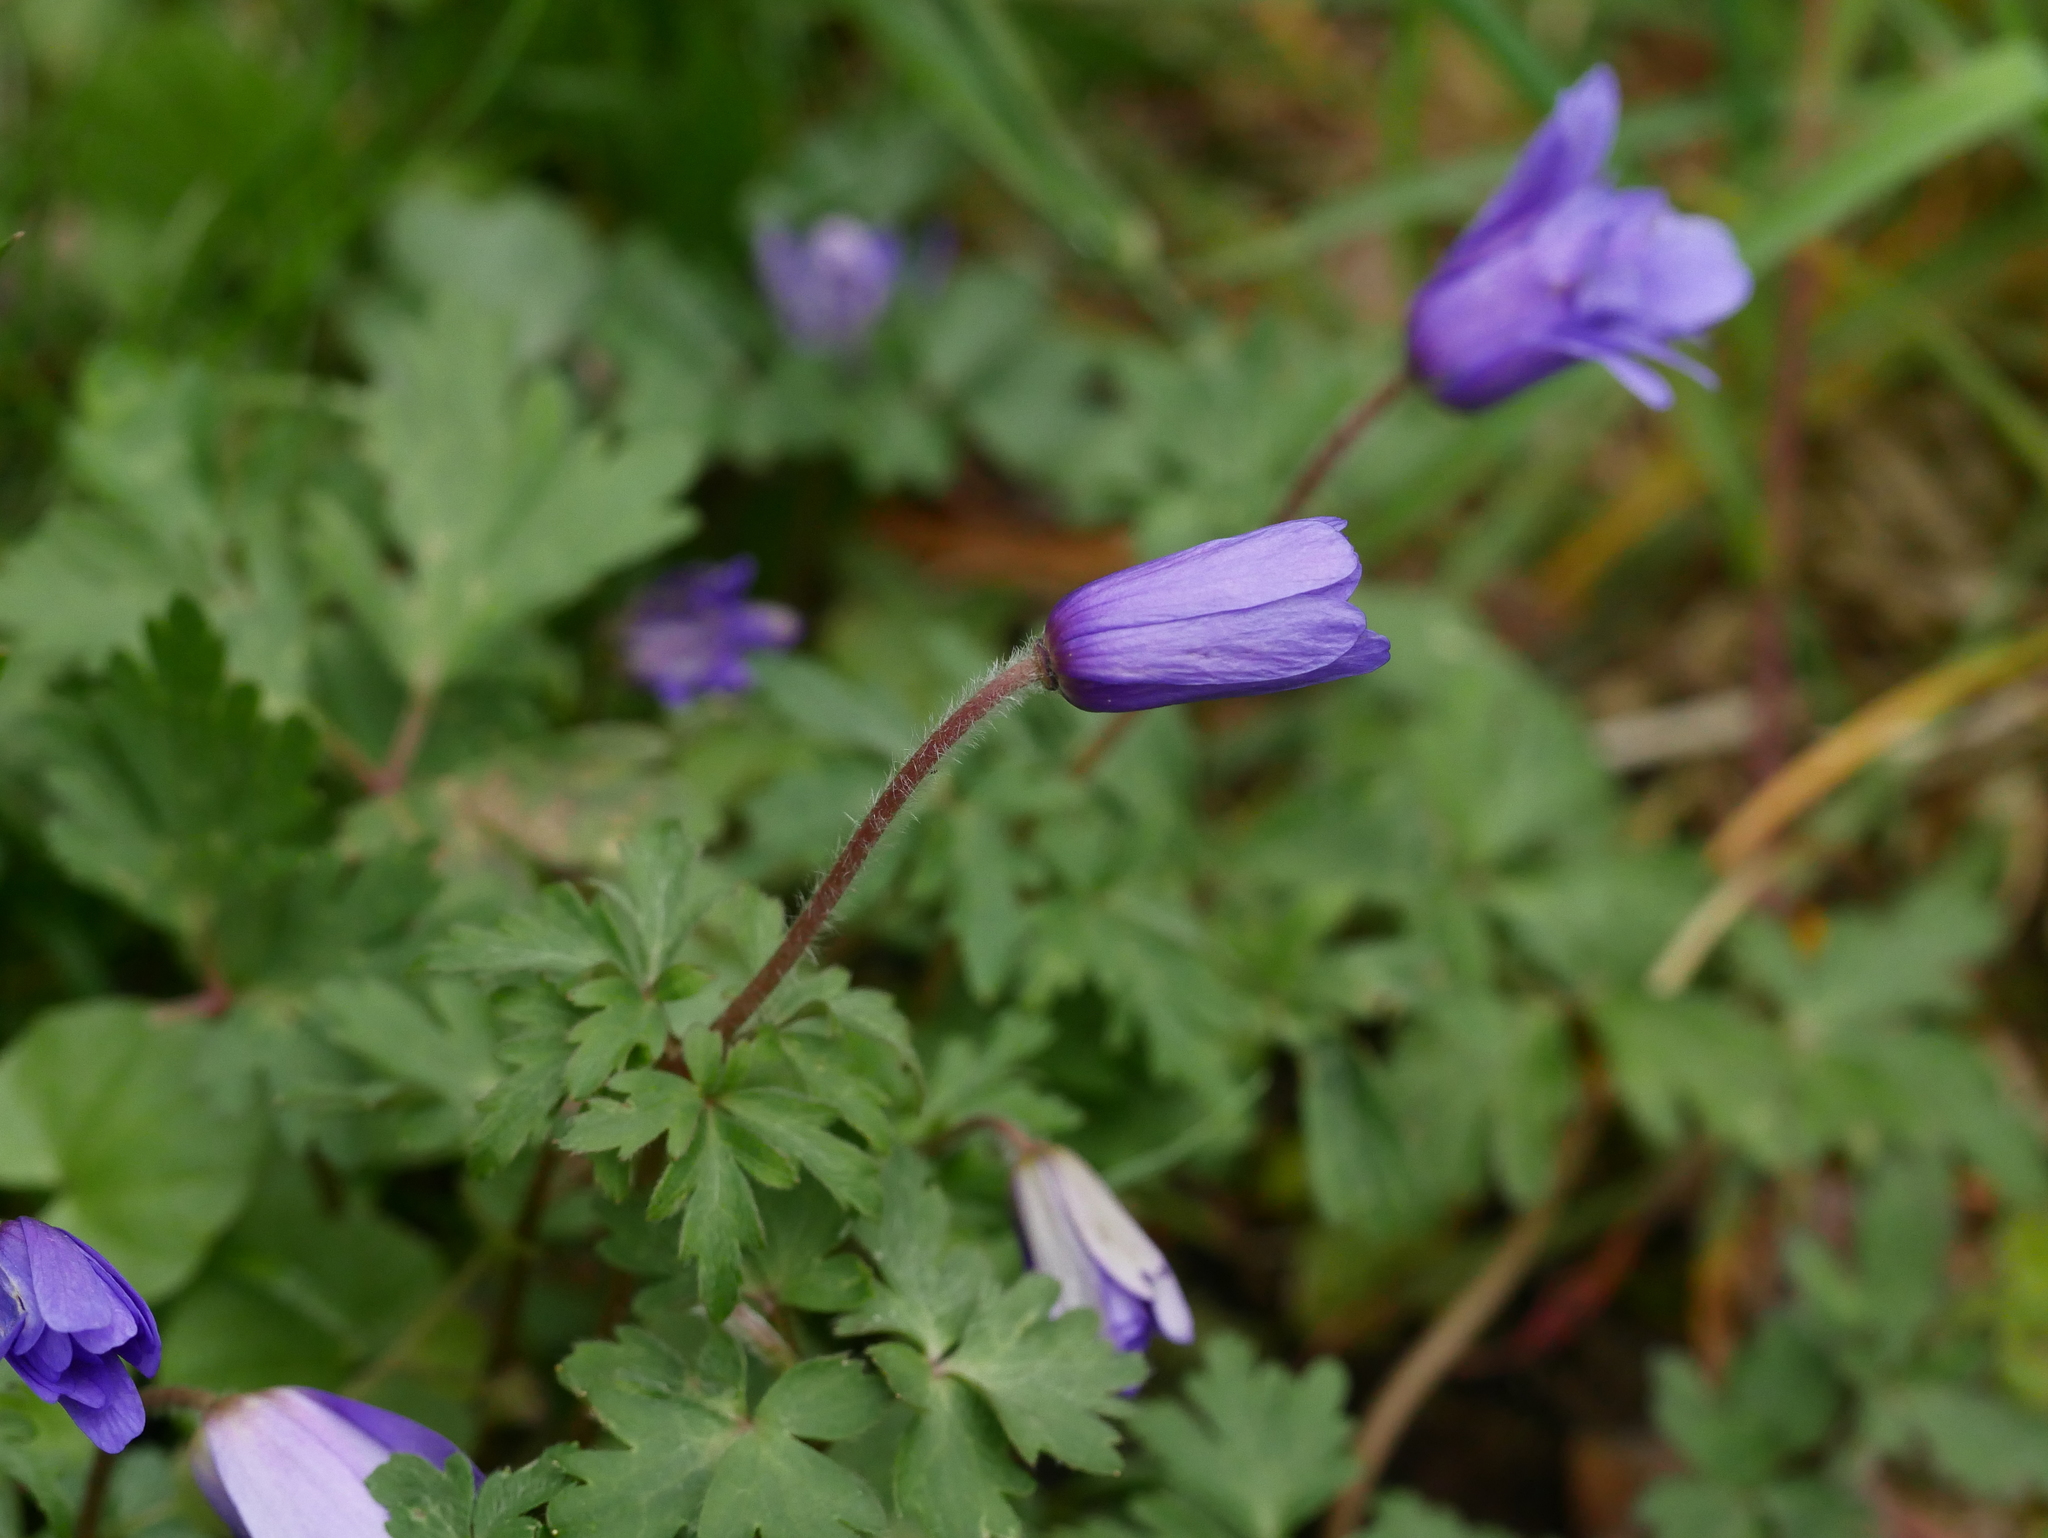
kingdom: Plantae
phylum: Tracheophyta
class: Magnoliopsida
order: Ranunculales
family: Ranunculaceae
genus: Anemone
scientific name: Anemone blanda
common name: Balkan anemone
